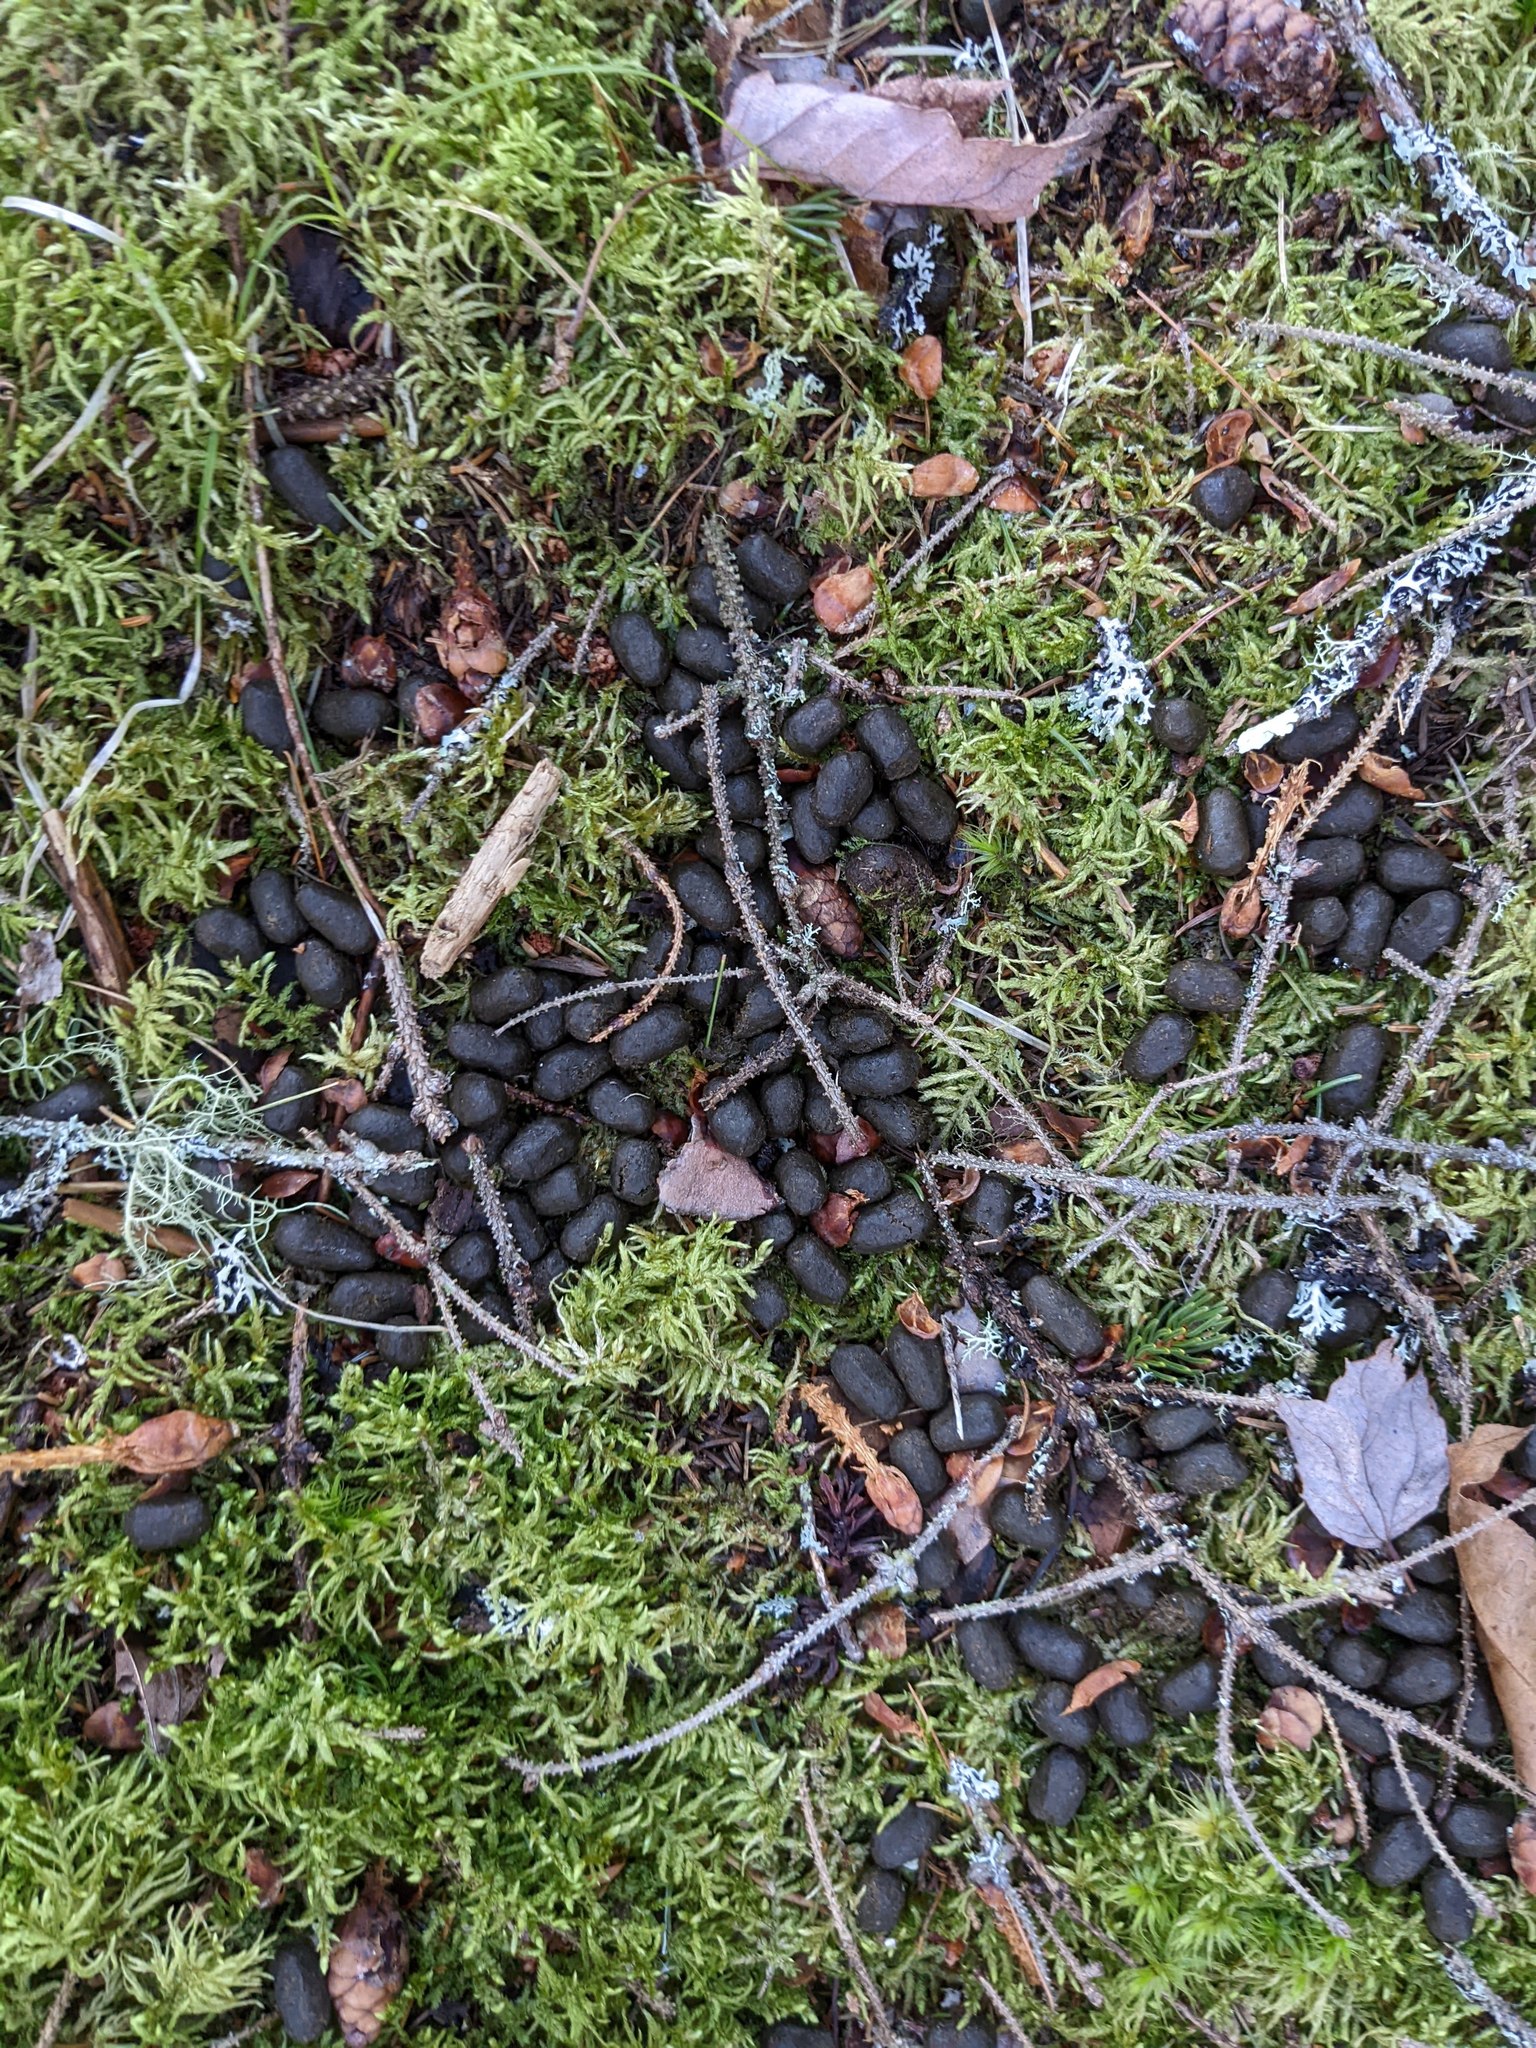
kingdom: Animalia
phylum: Chordata
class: Mammalia
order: Artiodactyla
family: Cervidae
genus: Odocoileus
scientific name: Odocoileus virginianus
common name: White-tailed deer
